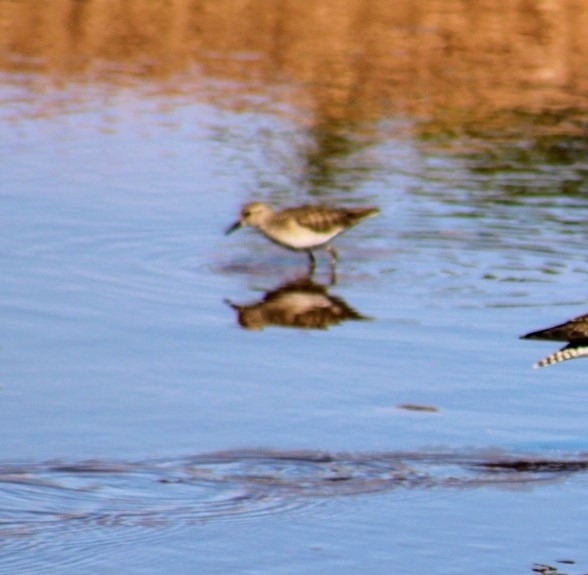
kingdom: Animalia
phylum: Chordata
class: Aves
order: Charadriiformes
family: Scolopacidae
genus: Calidris
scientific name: Calidris minutilla
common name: Least sandpiper
